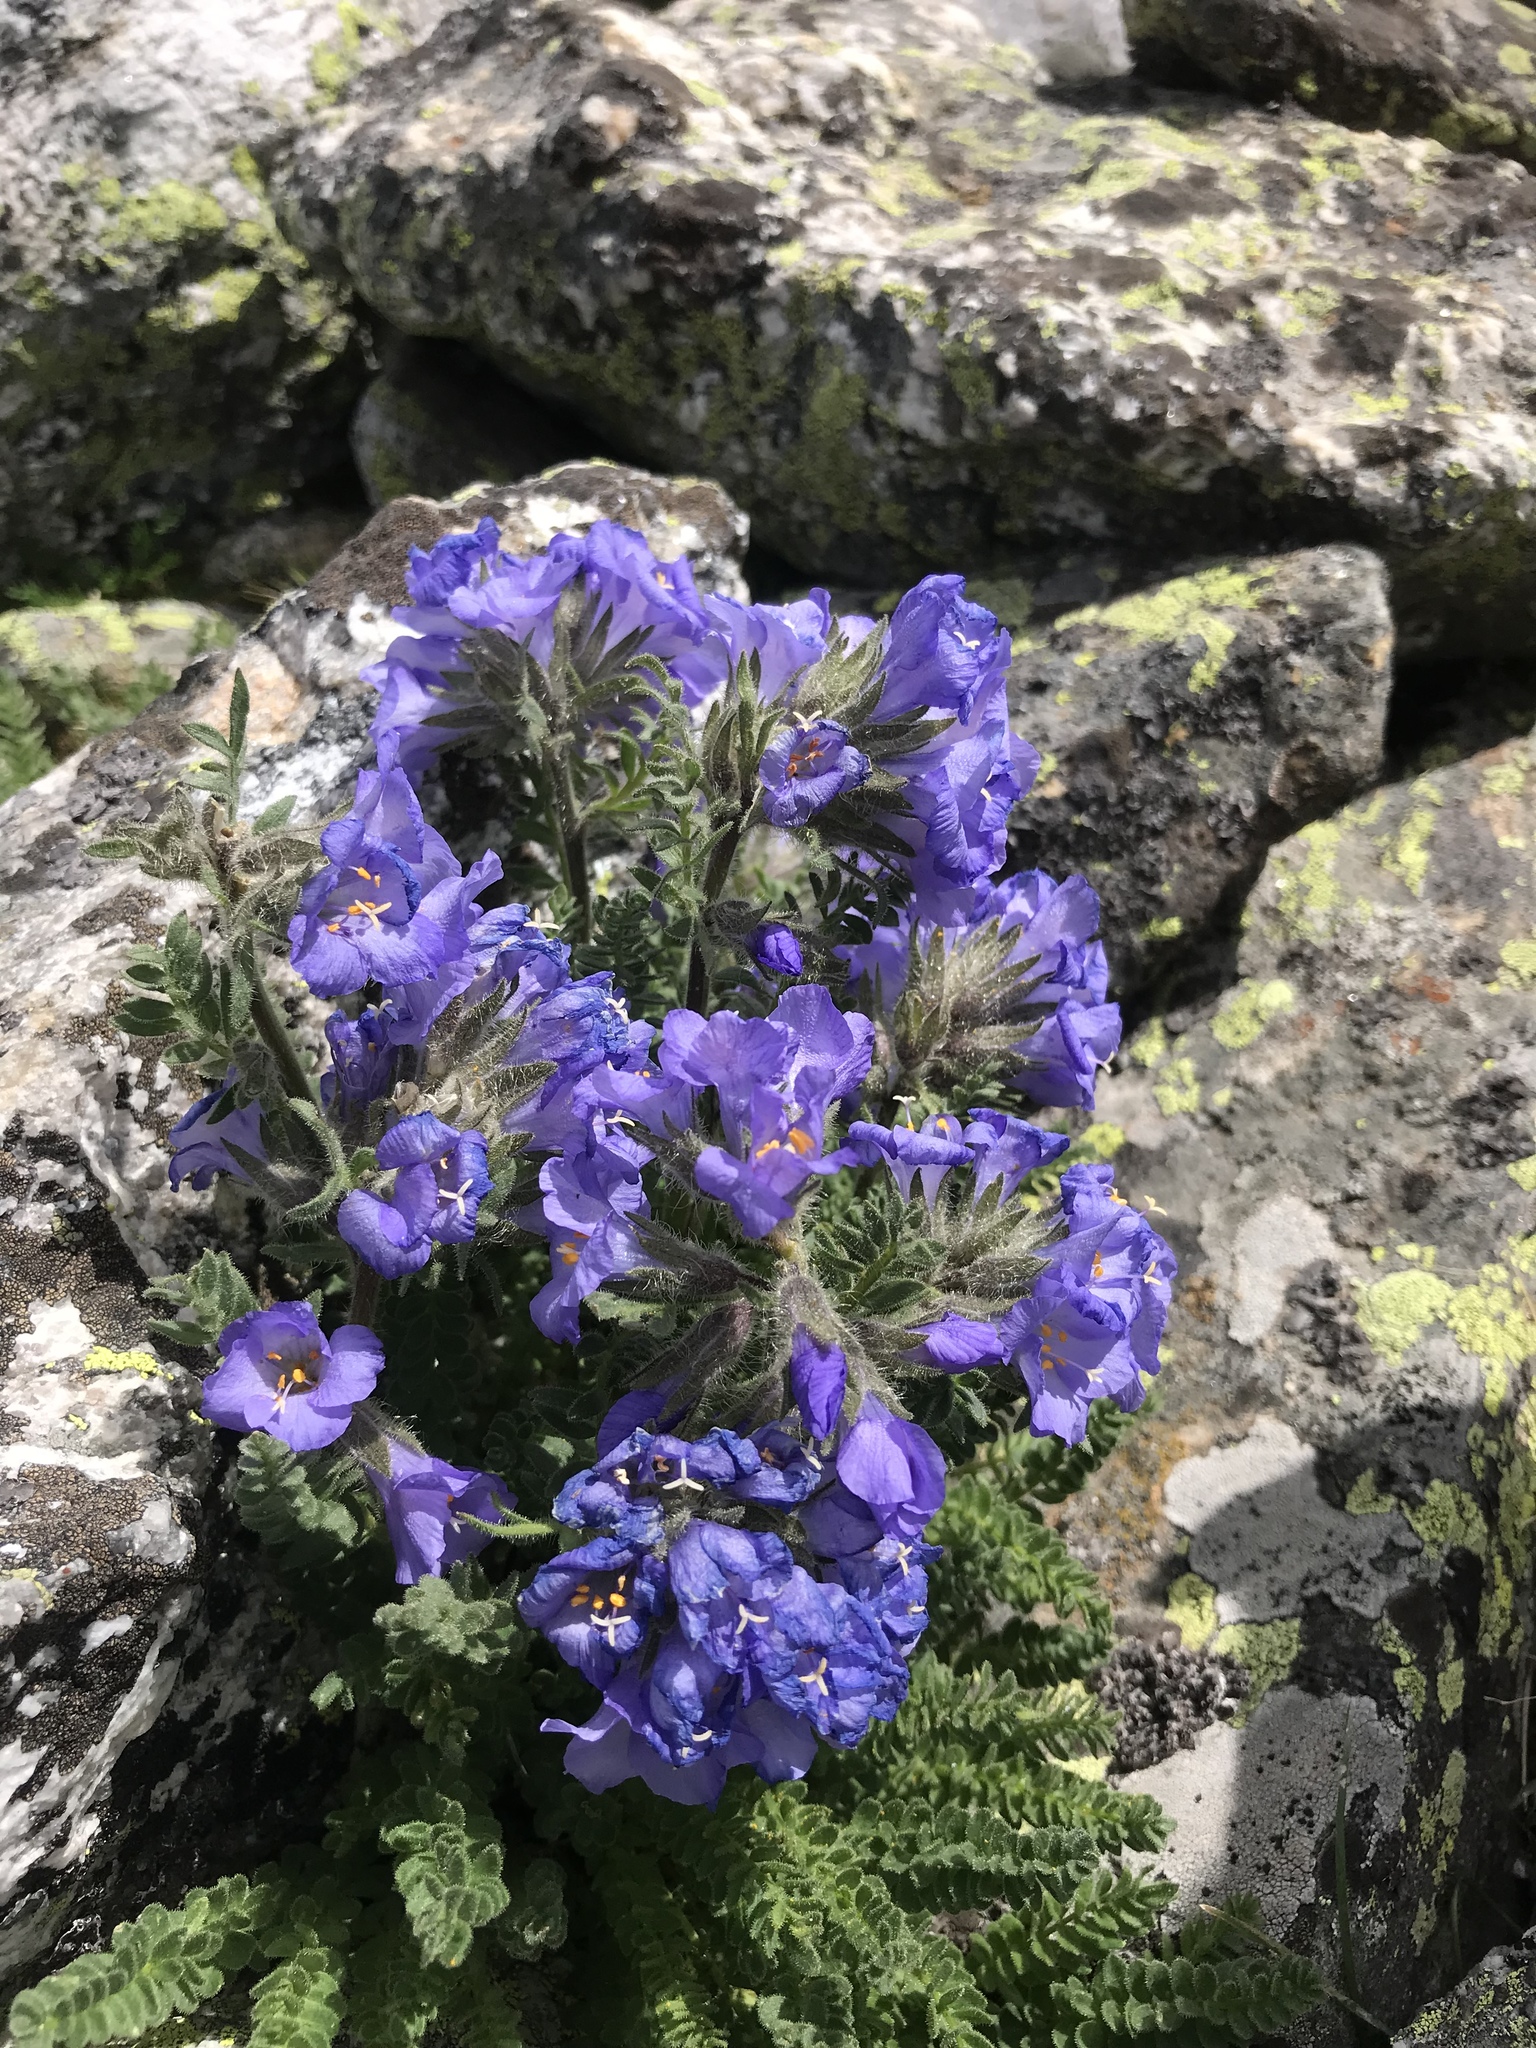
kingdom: Plantae
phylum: Tracheophyta
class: Magnoliopsida
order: Ericales
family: Polemoniaceae
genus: Polemonium
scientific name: Polemonium viscosum
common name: Skunk jacob's-ladder
